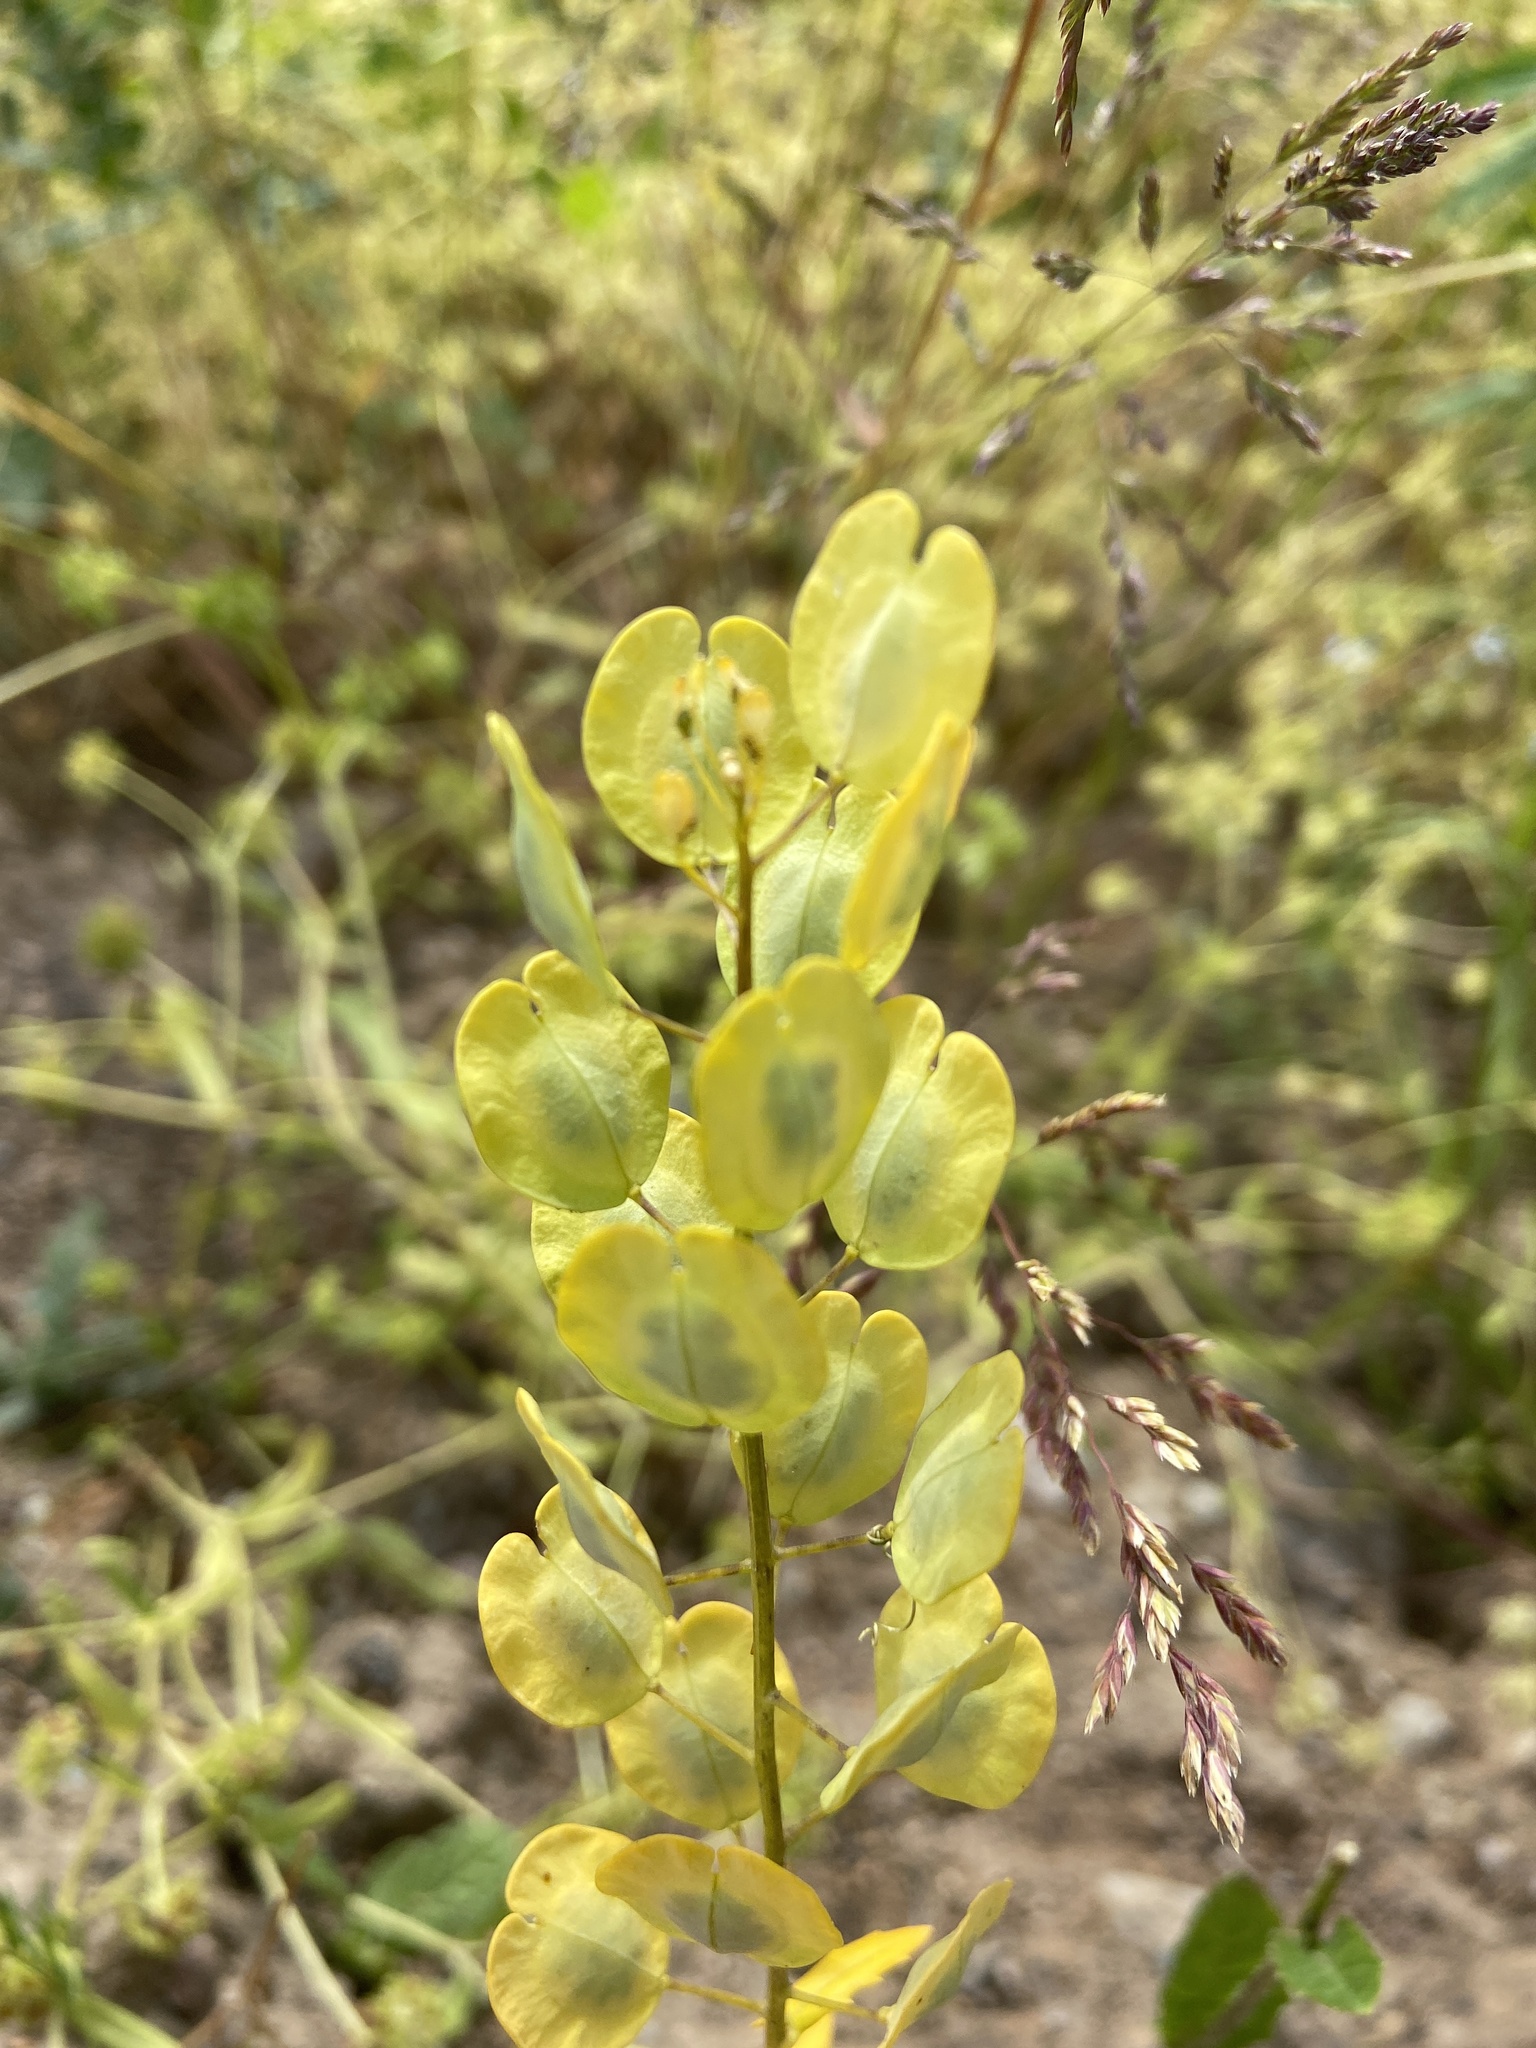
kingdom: Plantae
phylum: Tracheophyta
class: Magnoliopsida
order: Brassicales
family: Brassicaceae
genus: Thlaspi
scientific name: Thlaspi arvense
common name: Field pennycress
